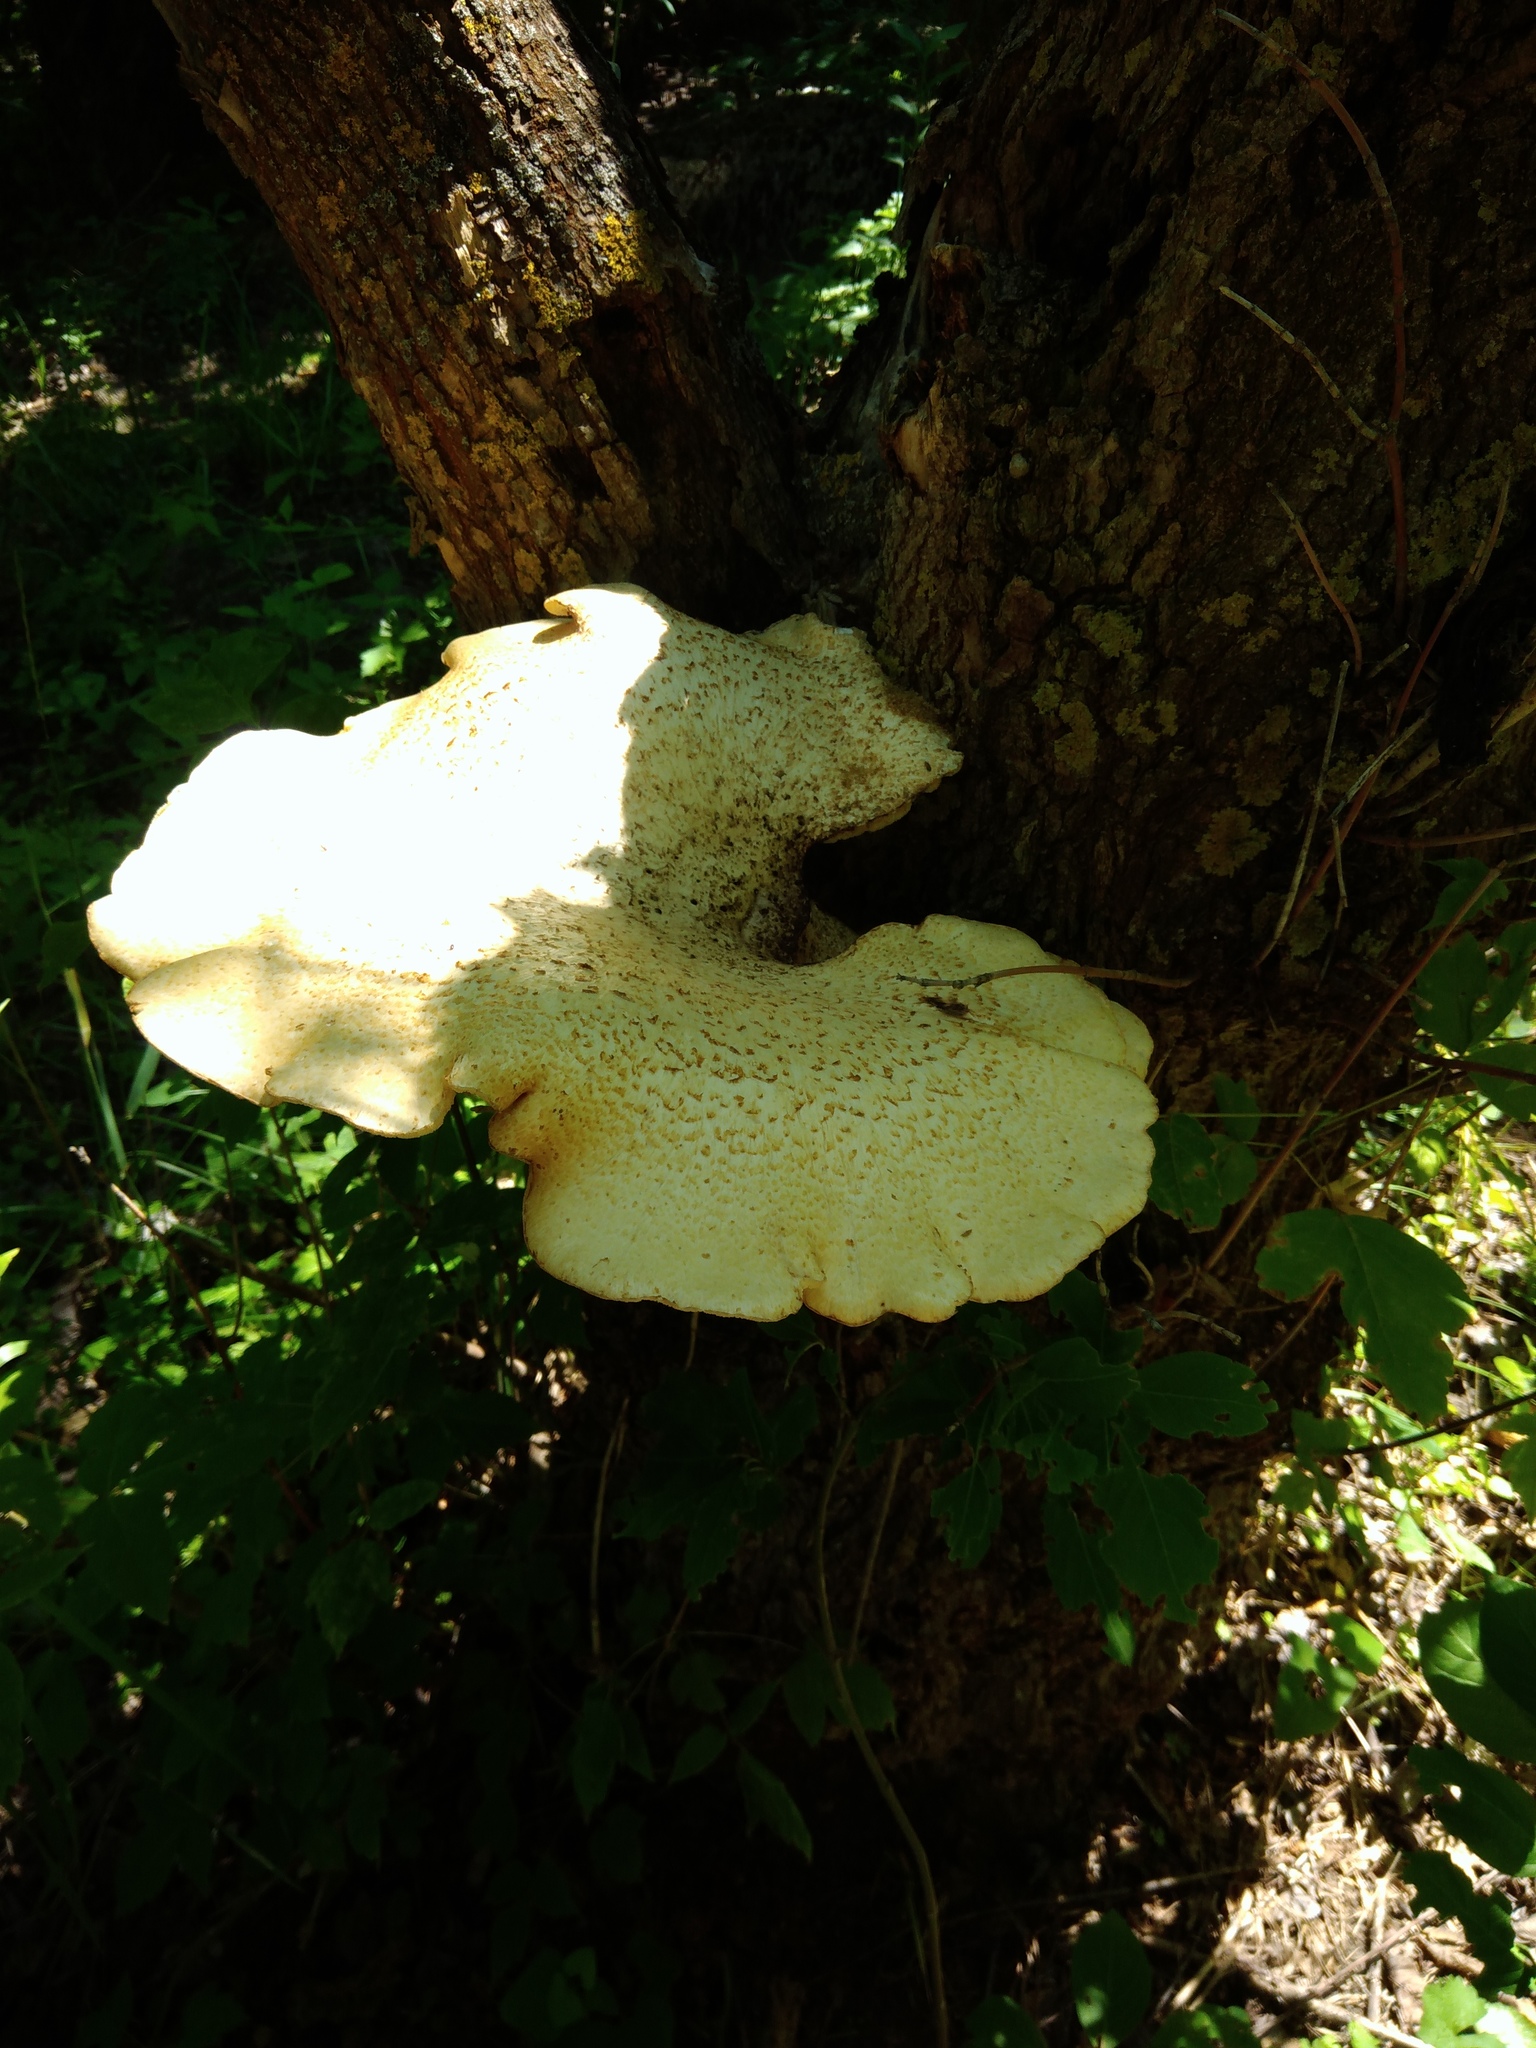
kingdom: Fungi
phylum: Basidiomycota
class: Agaricomycetes
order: Polyporales
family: Polyporaceae
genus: Cerioporus
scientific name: Cerioporus squamosus
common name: Dryad's saddle
